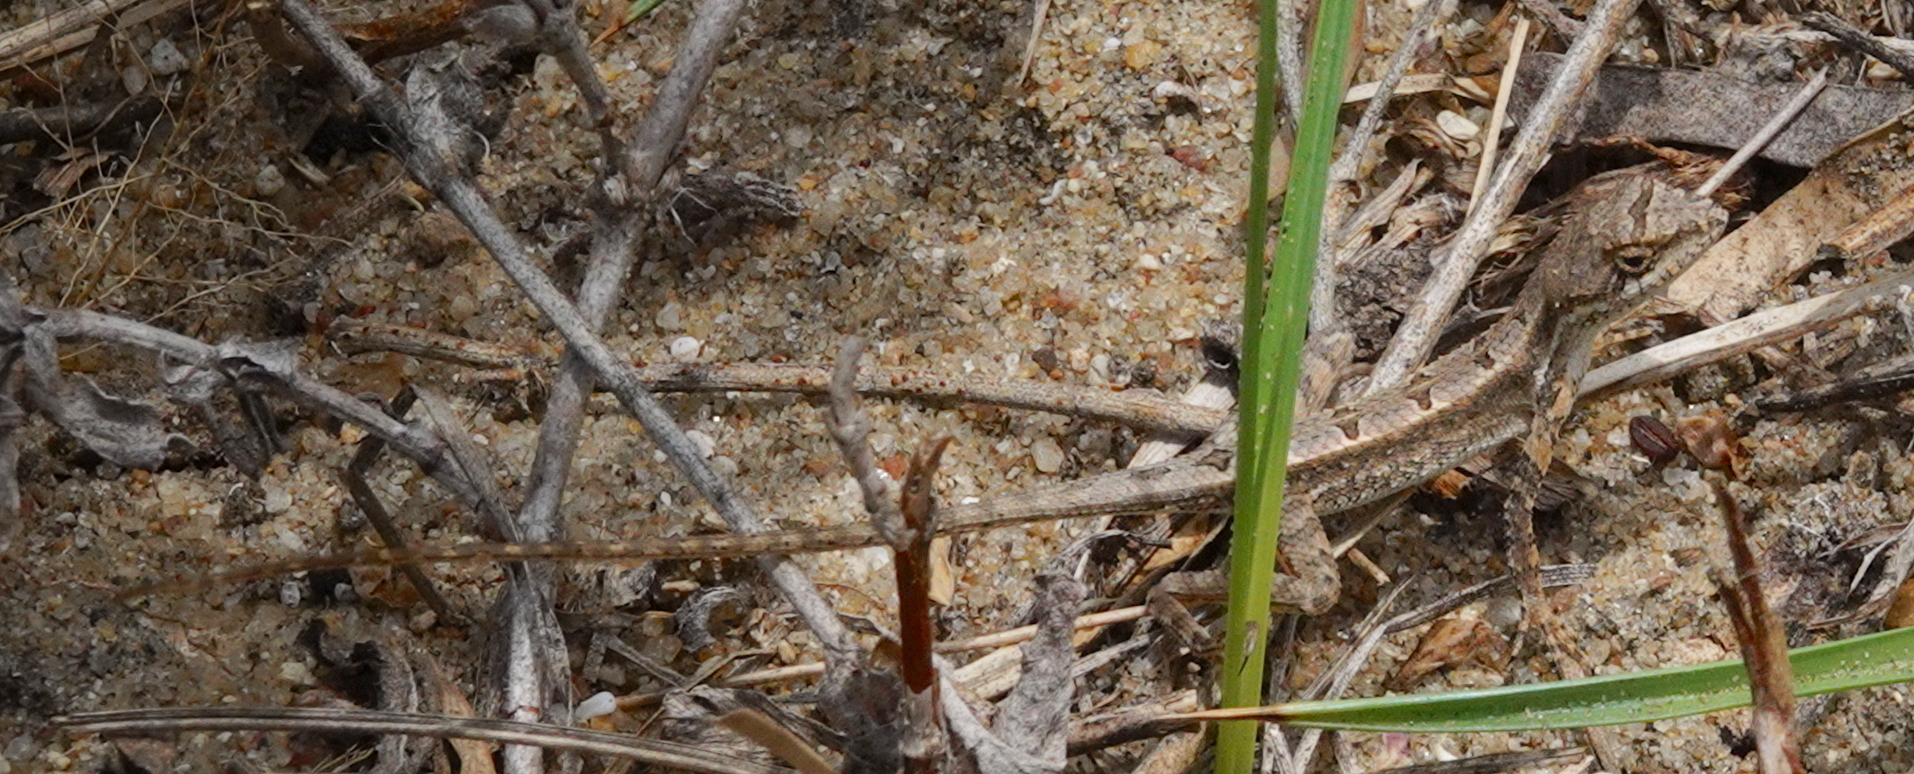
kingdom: Animalia
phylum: Chordata
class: Squamata
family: Agamidae
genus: Sitana
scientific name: Sitana ponticeriana
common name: Pondichéry fan throated lizard
